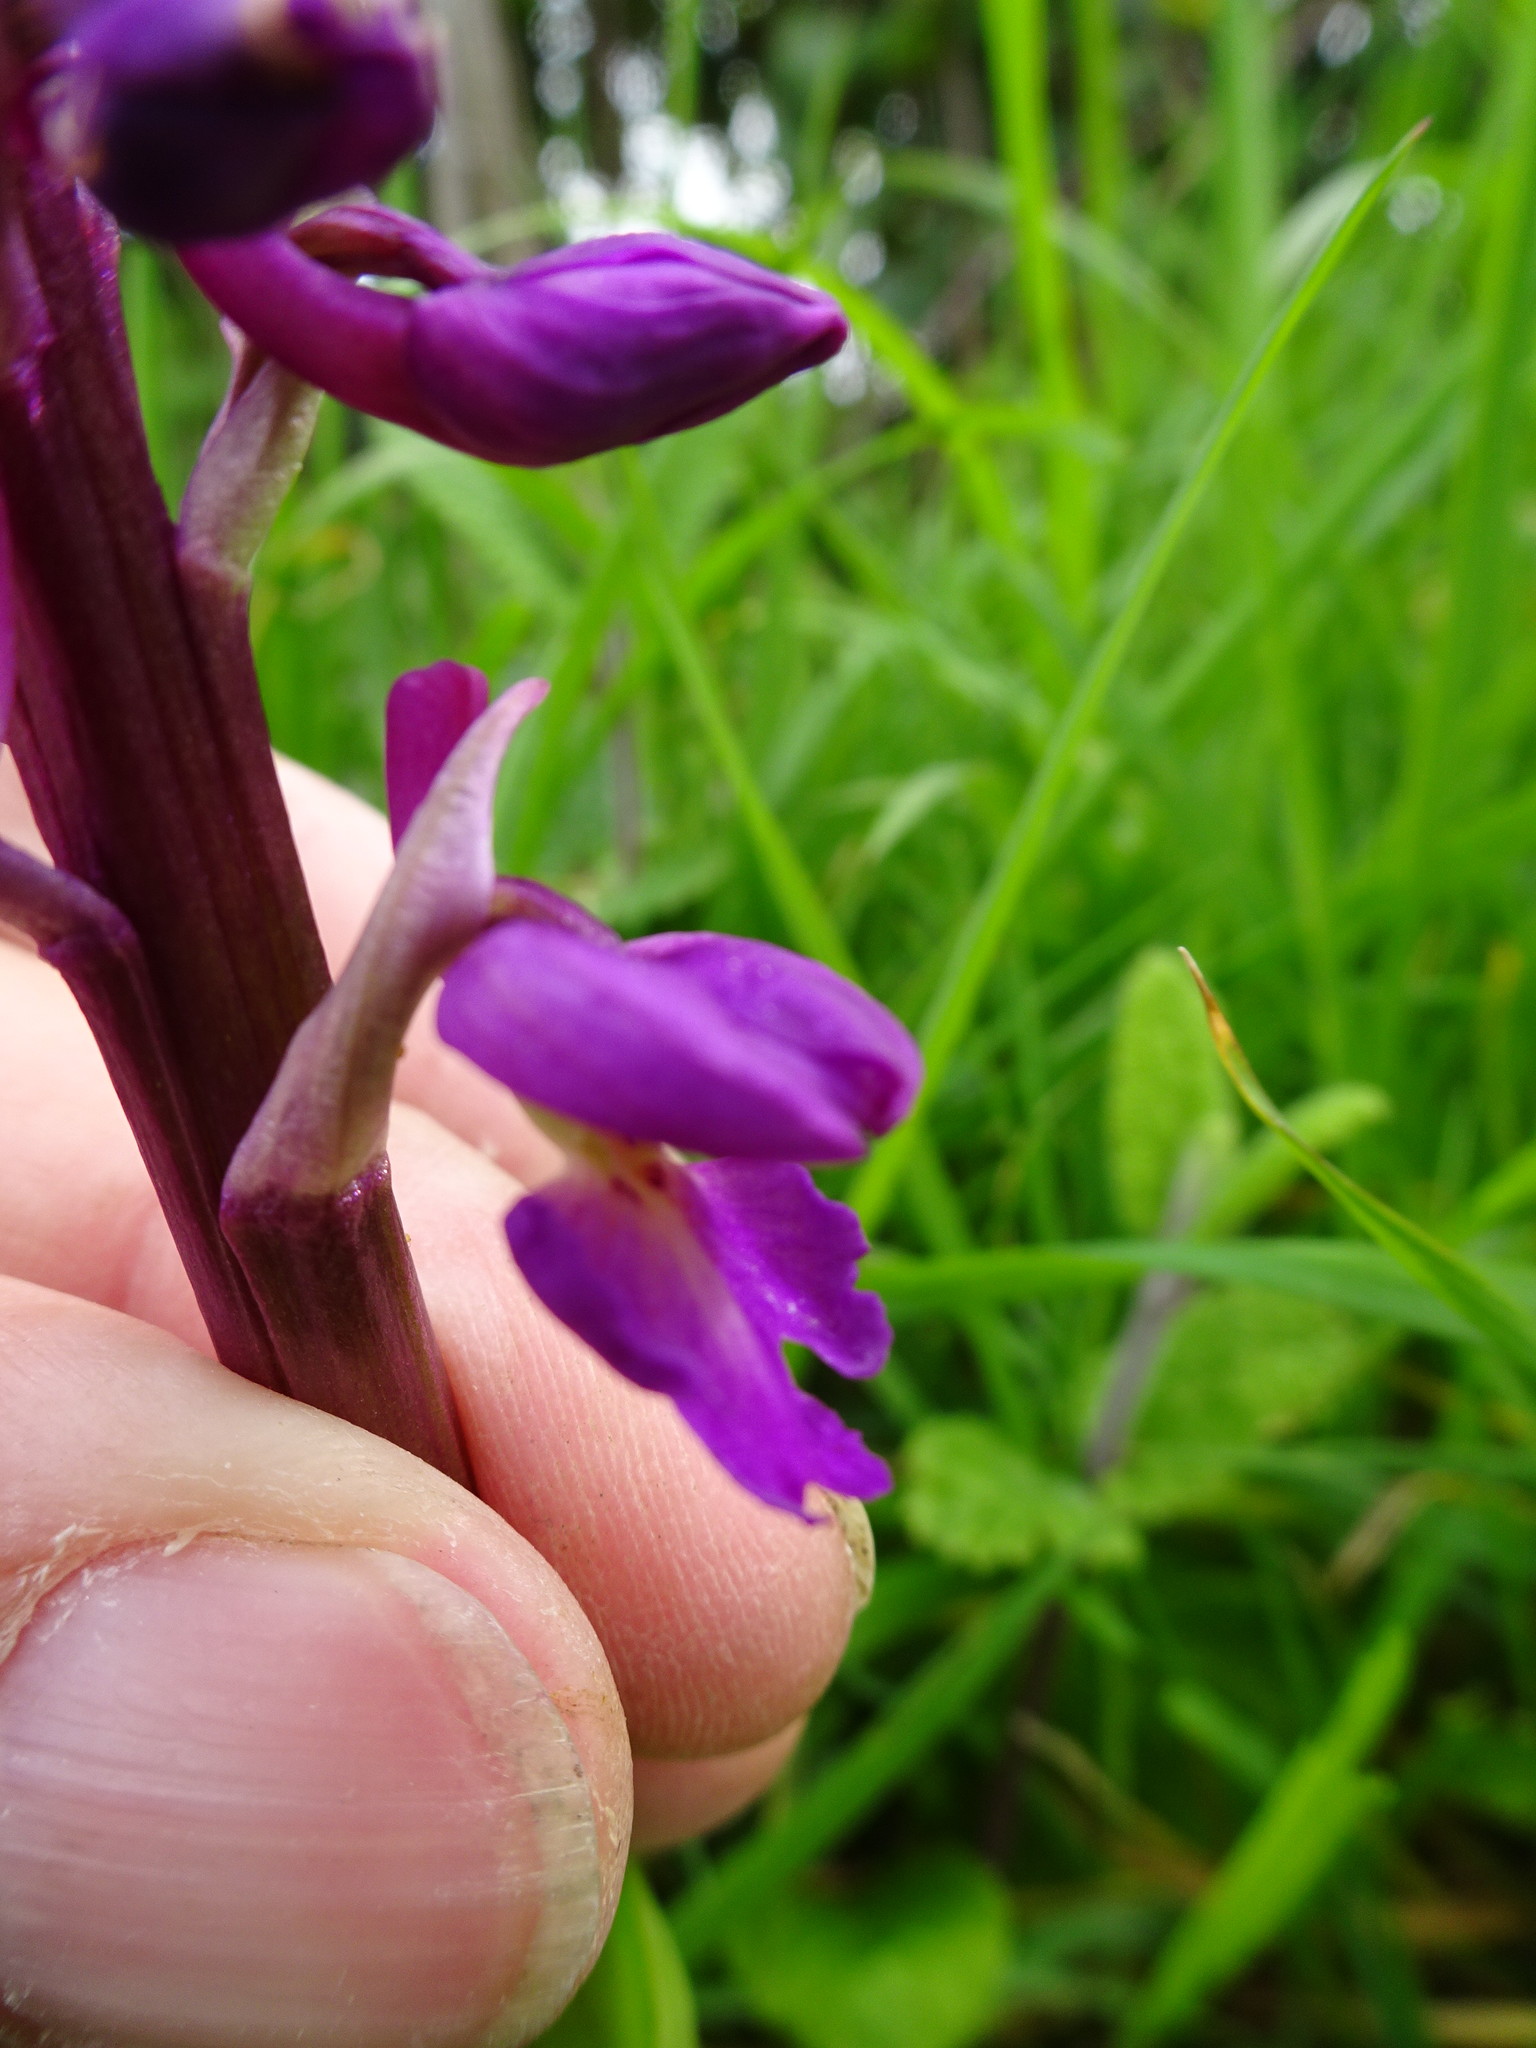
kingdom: Plantae
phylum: Tracheophyta
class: Liliopsida
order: Asparagales
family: Orchidaceae
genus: Orchis
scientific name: Orchis mascula
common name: Early-purple orchid
